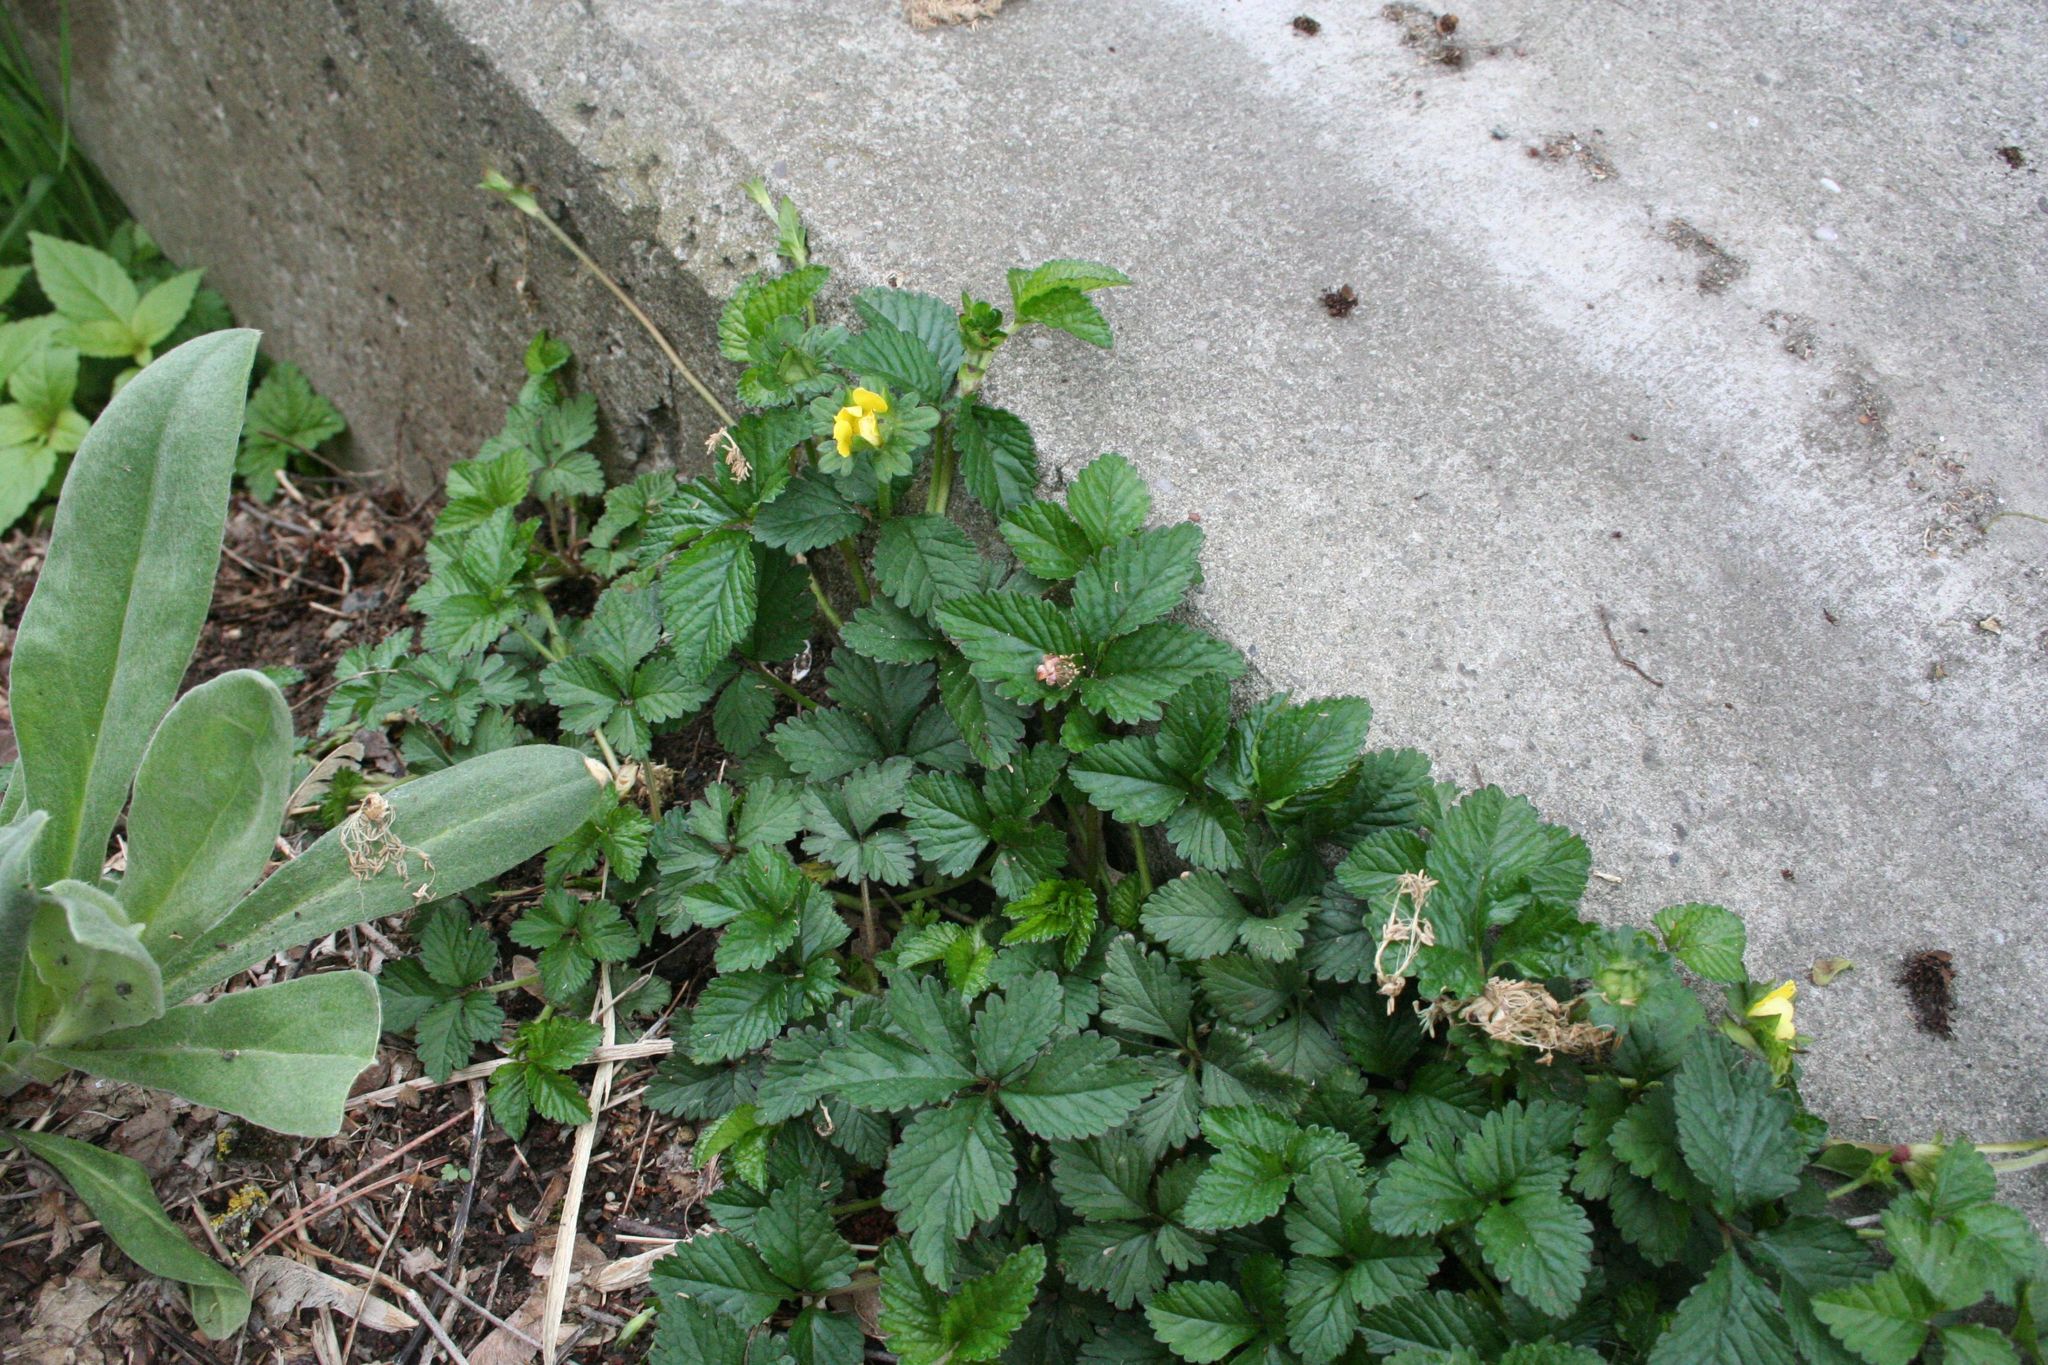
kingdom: Plantae
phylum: Tracheophyta
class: Magnoliopsida
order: Rosales
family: Rosaceae
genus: Potentilla
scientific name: Potentilla indica
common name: Yellow-flowered strawberry
